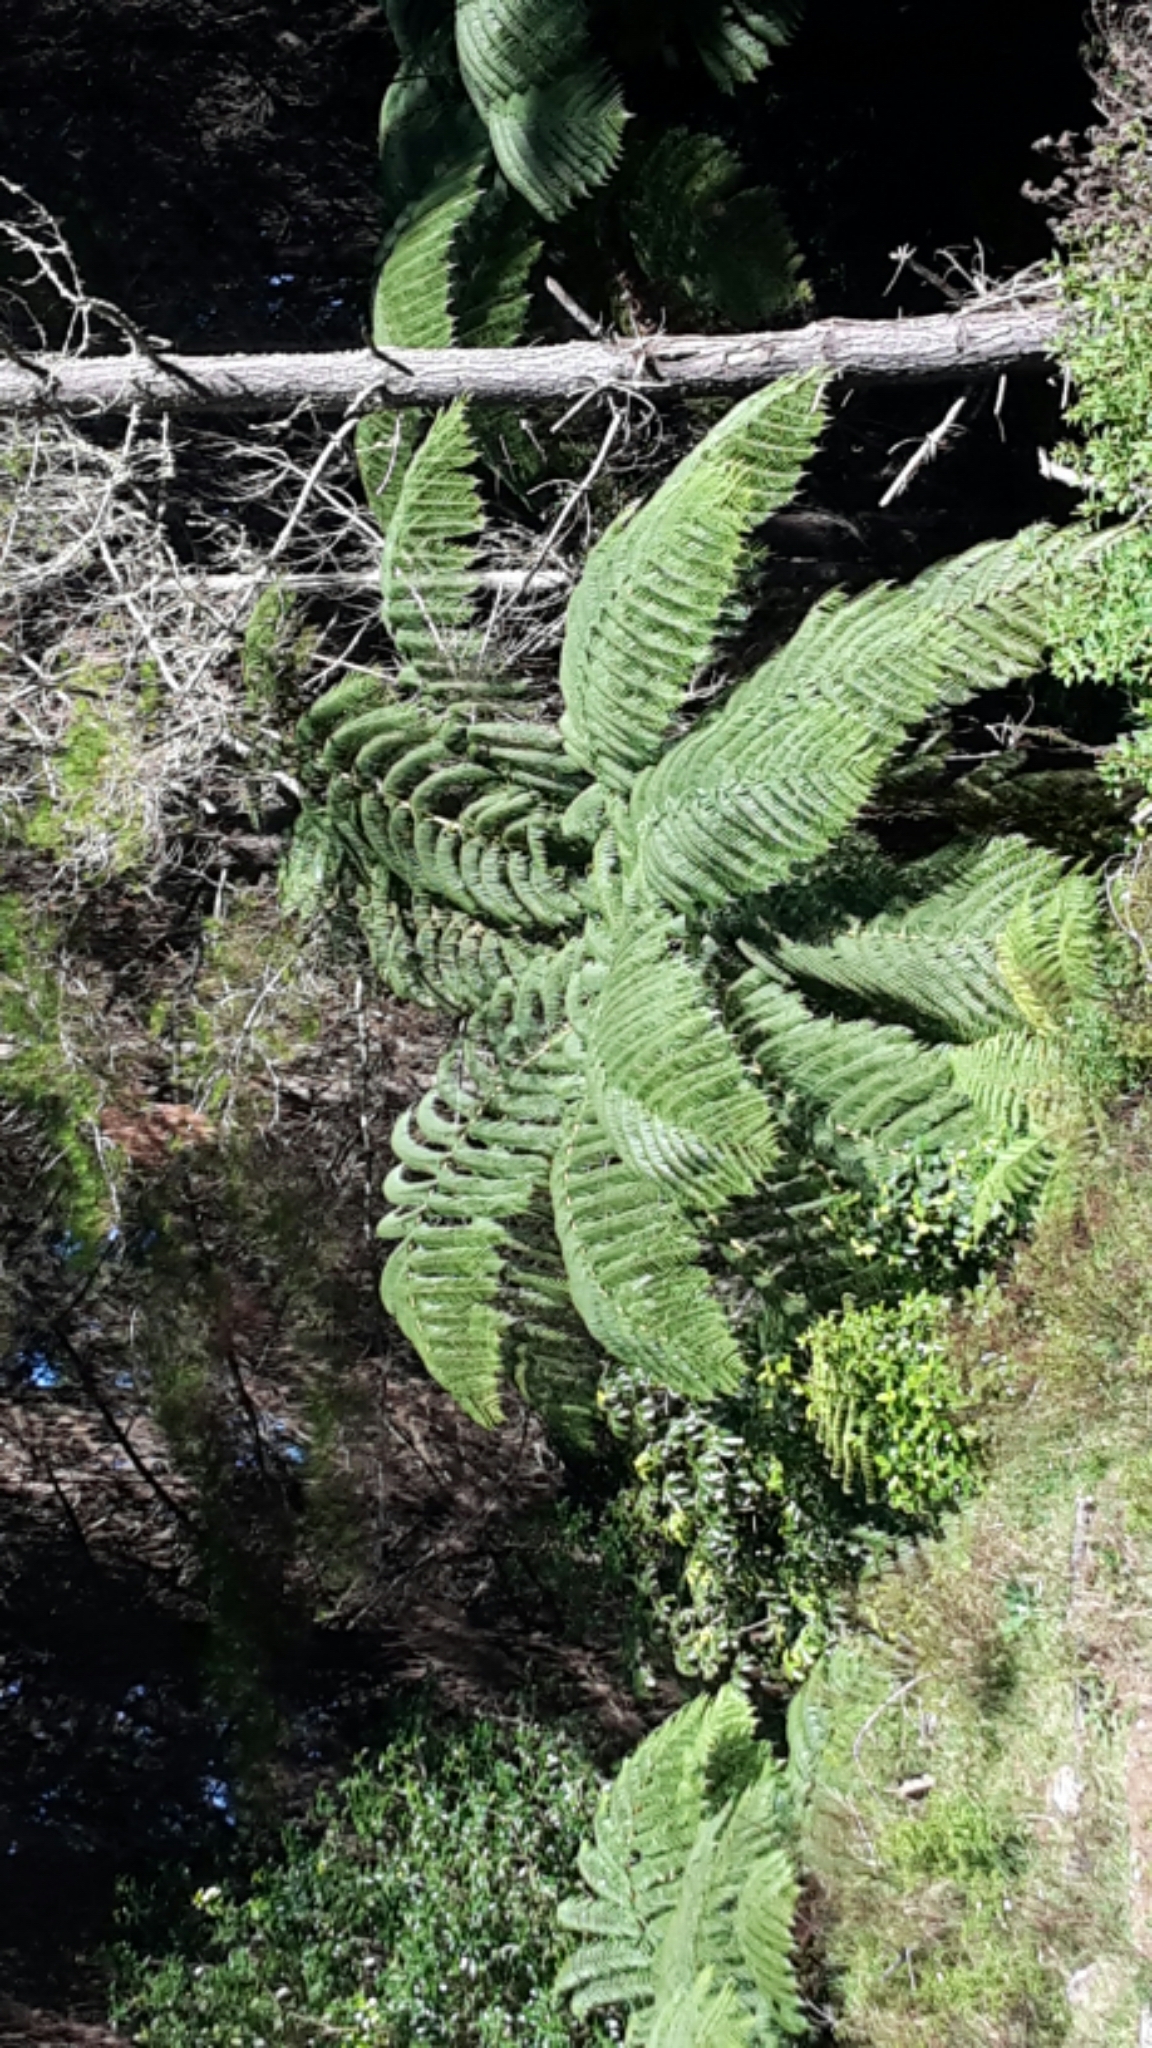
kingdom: Plantae
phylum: Tracheophyta
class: Polypodiopsida
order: Cyatheales
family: Cyatheaceae
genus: Sphaeropteris
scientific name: Sphaeropteris medullaris
